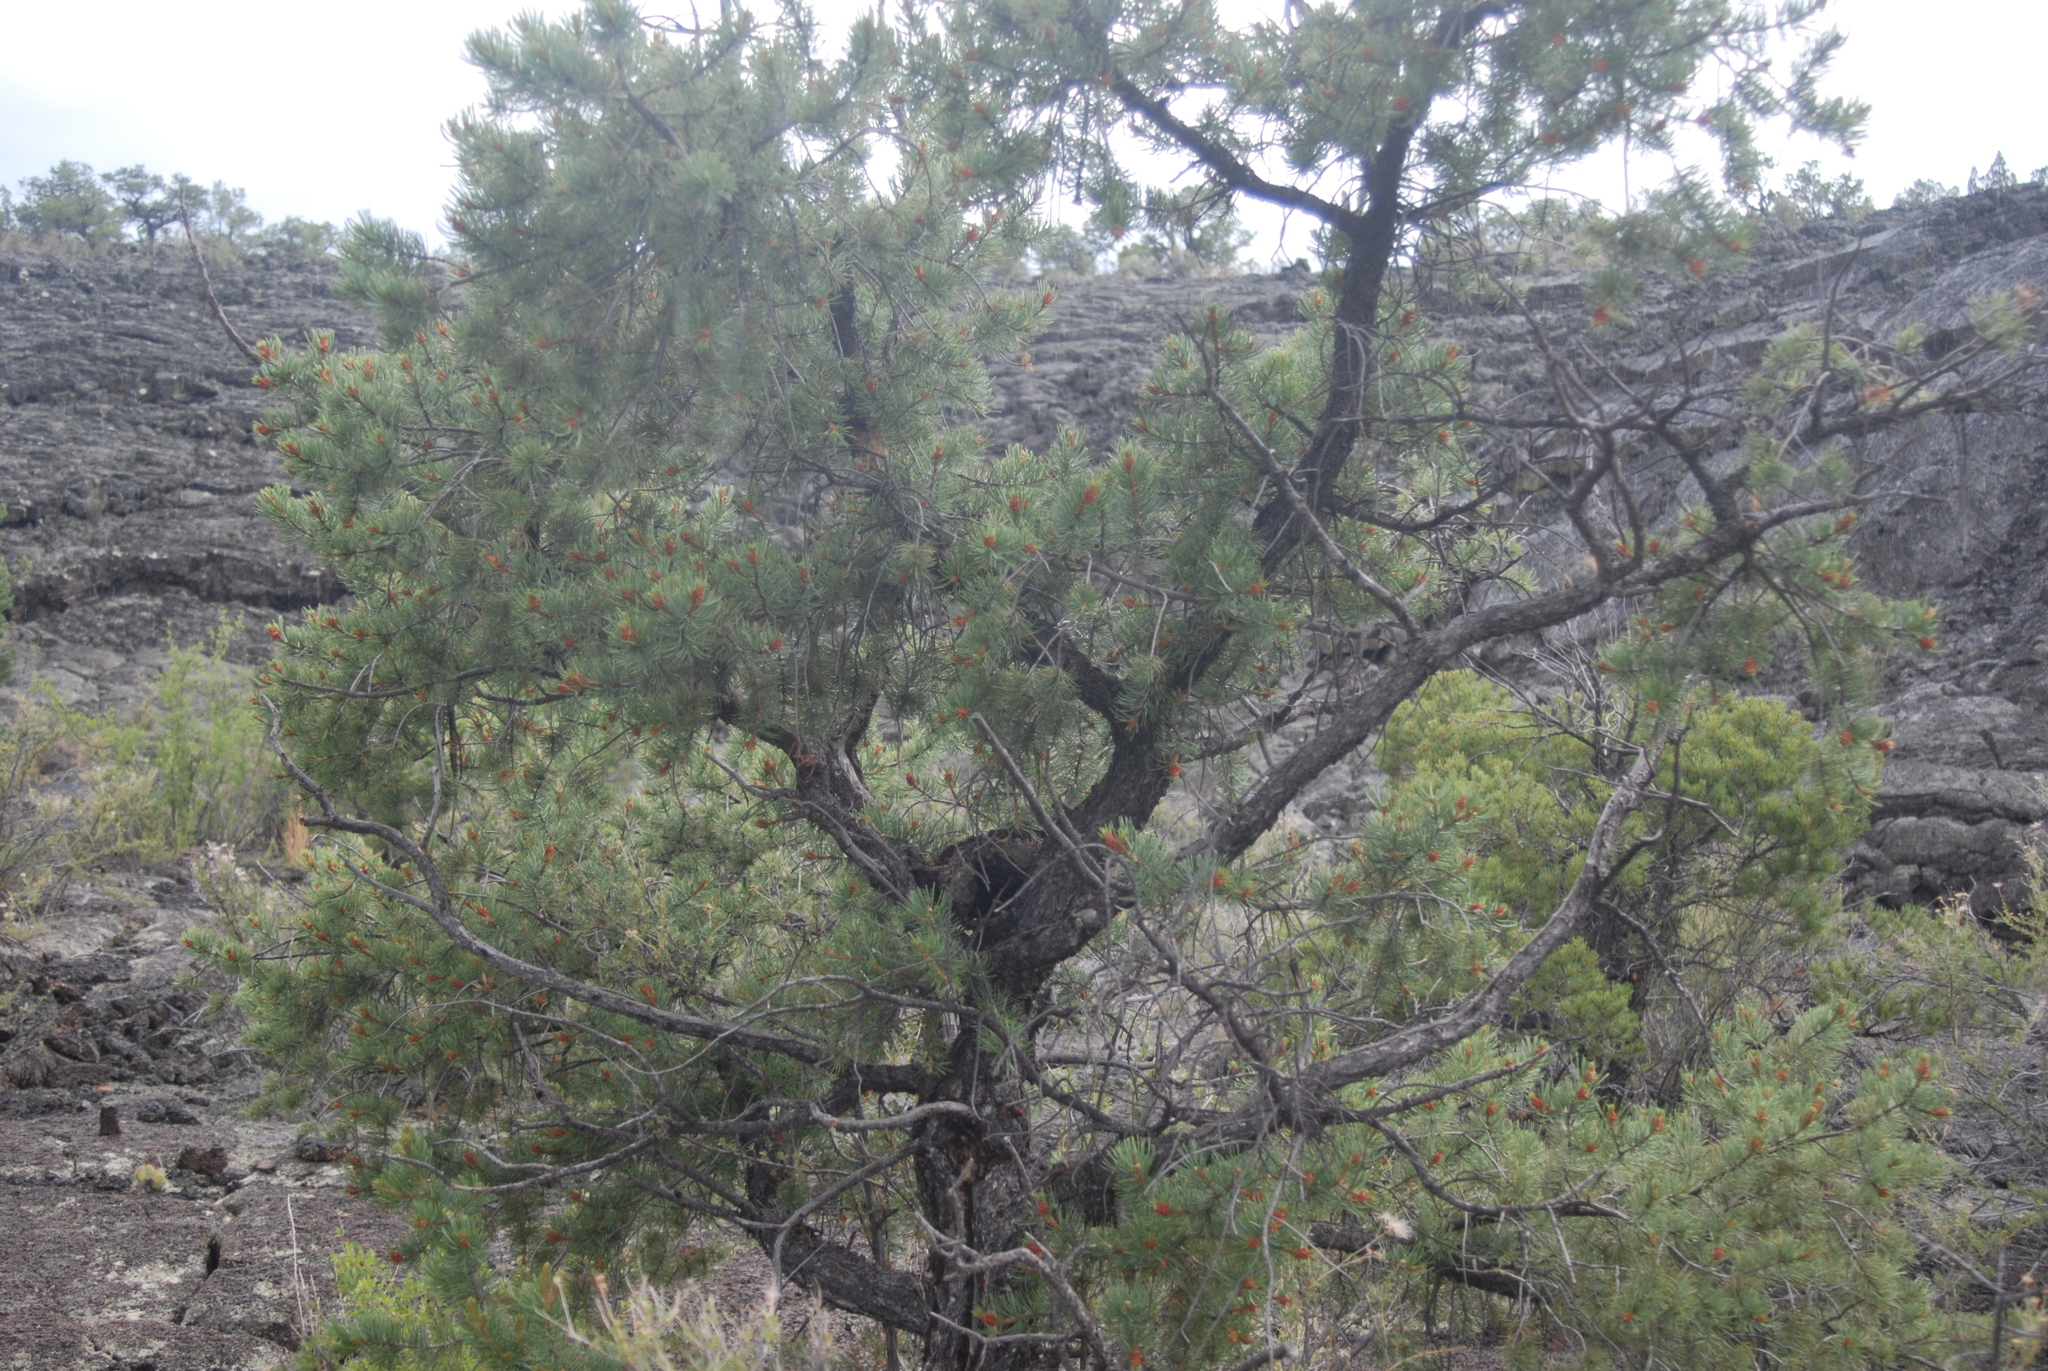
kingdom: Plantae
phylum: Tracheophyta
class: Pinopsida
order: Pinales
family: Pinaceae
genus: Pinus
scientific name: Pinus edulis
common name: Colorado pinyon
